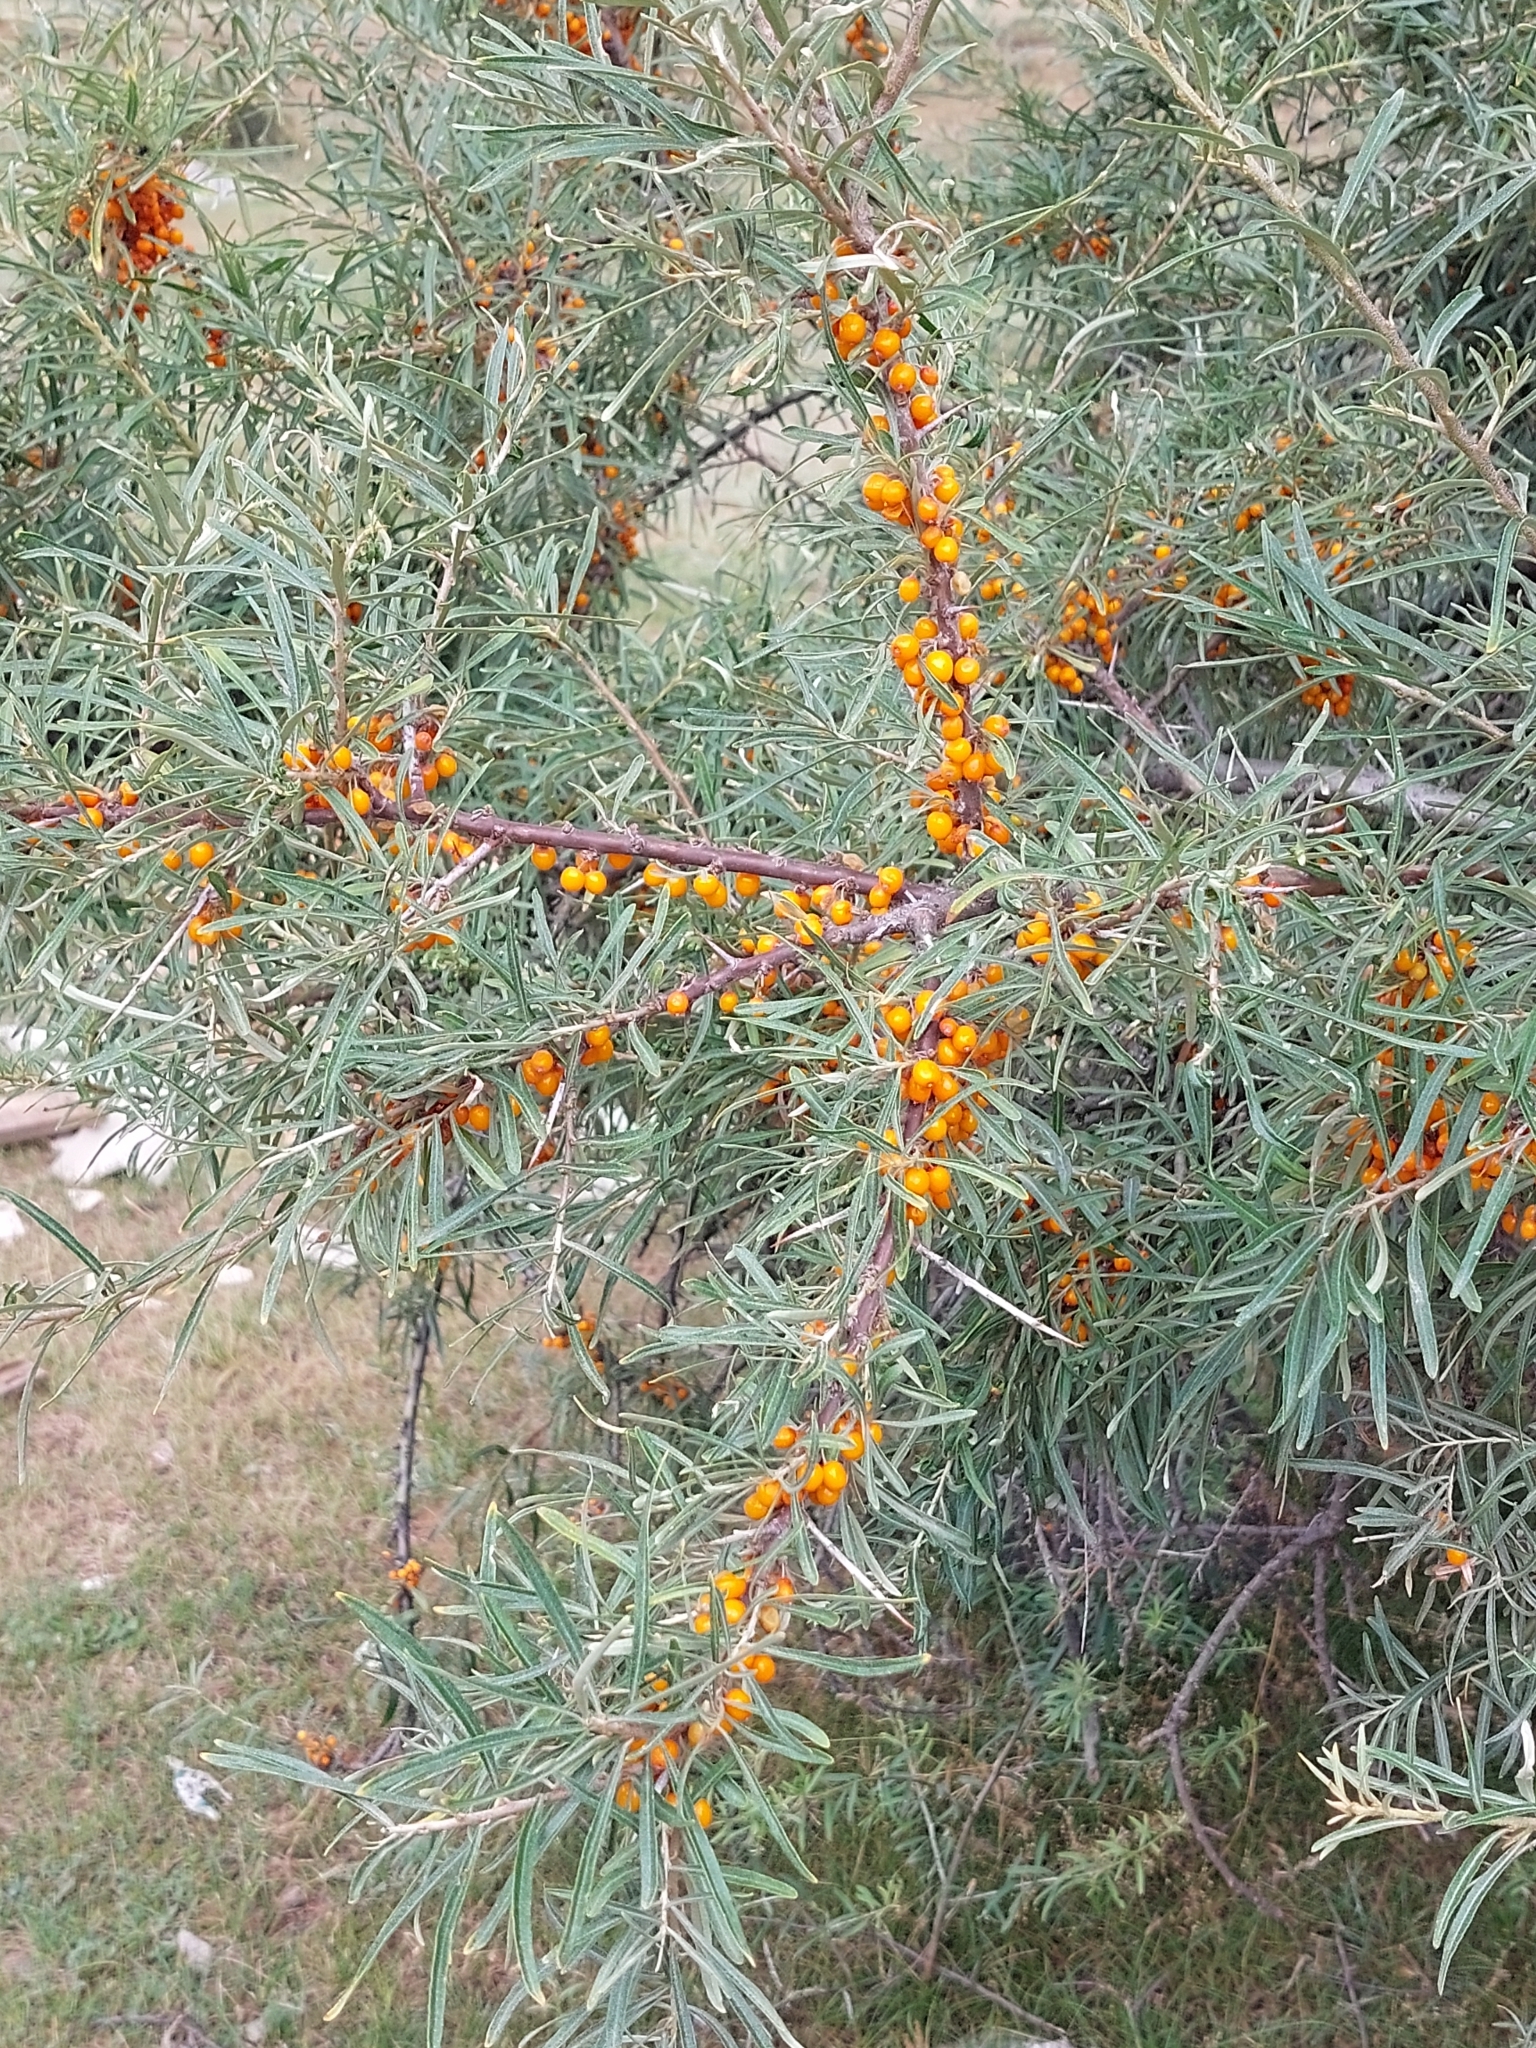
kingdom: Plantae
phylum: Tracheophyta
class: Magnoliopsida
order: Rosales
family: Elaeagnaceae
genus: Hippophae
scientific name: Hippophae rhamnoides
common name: Sea-buckthorn
